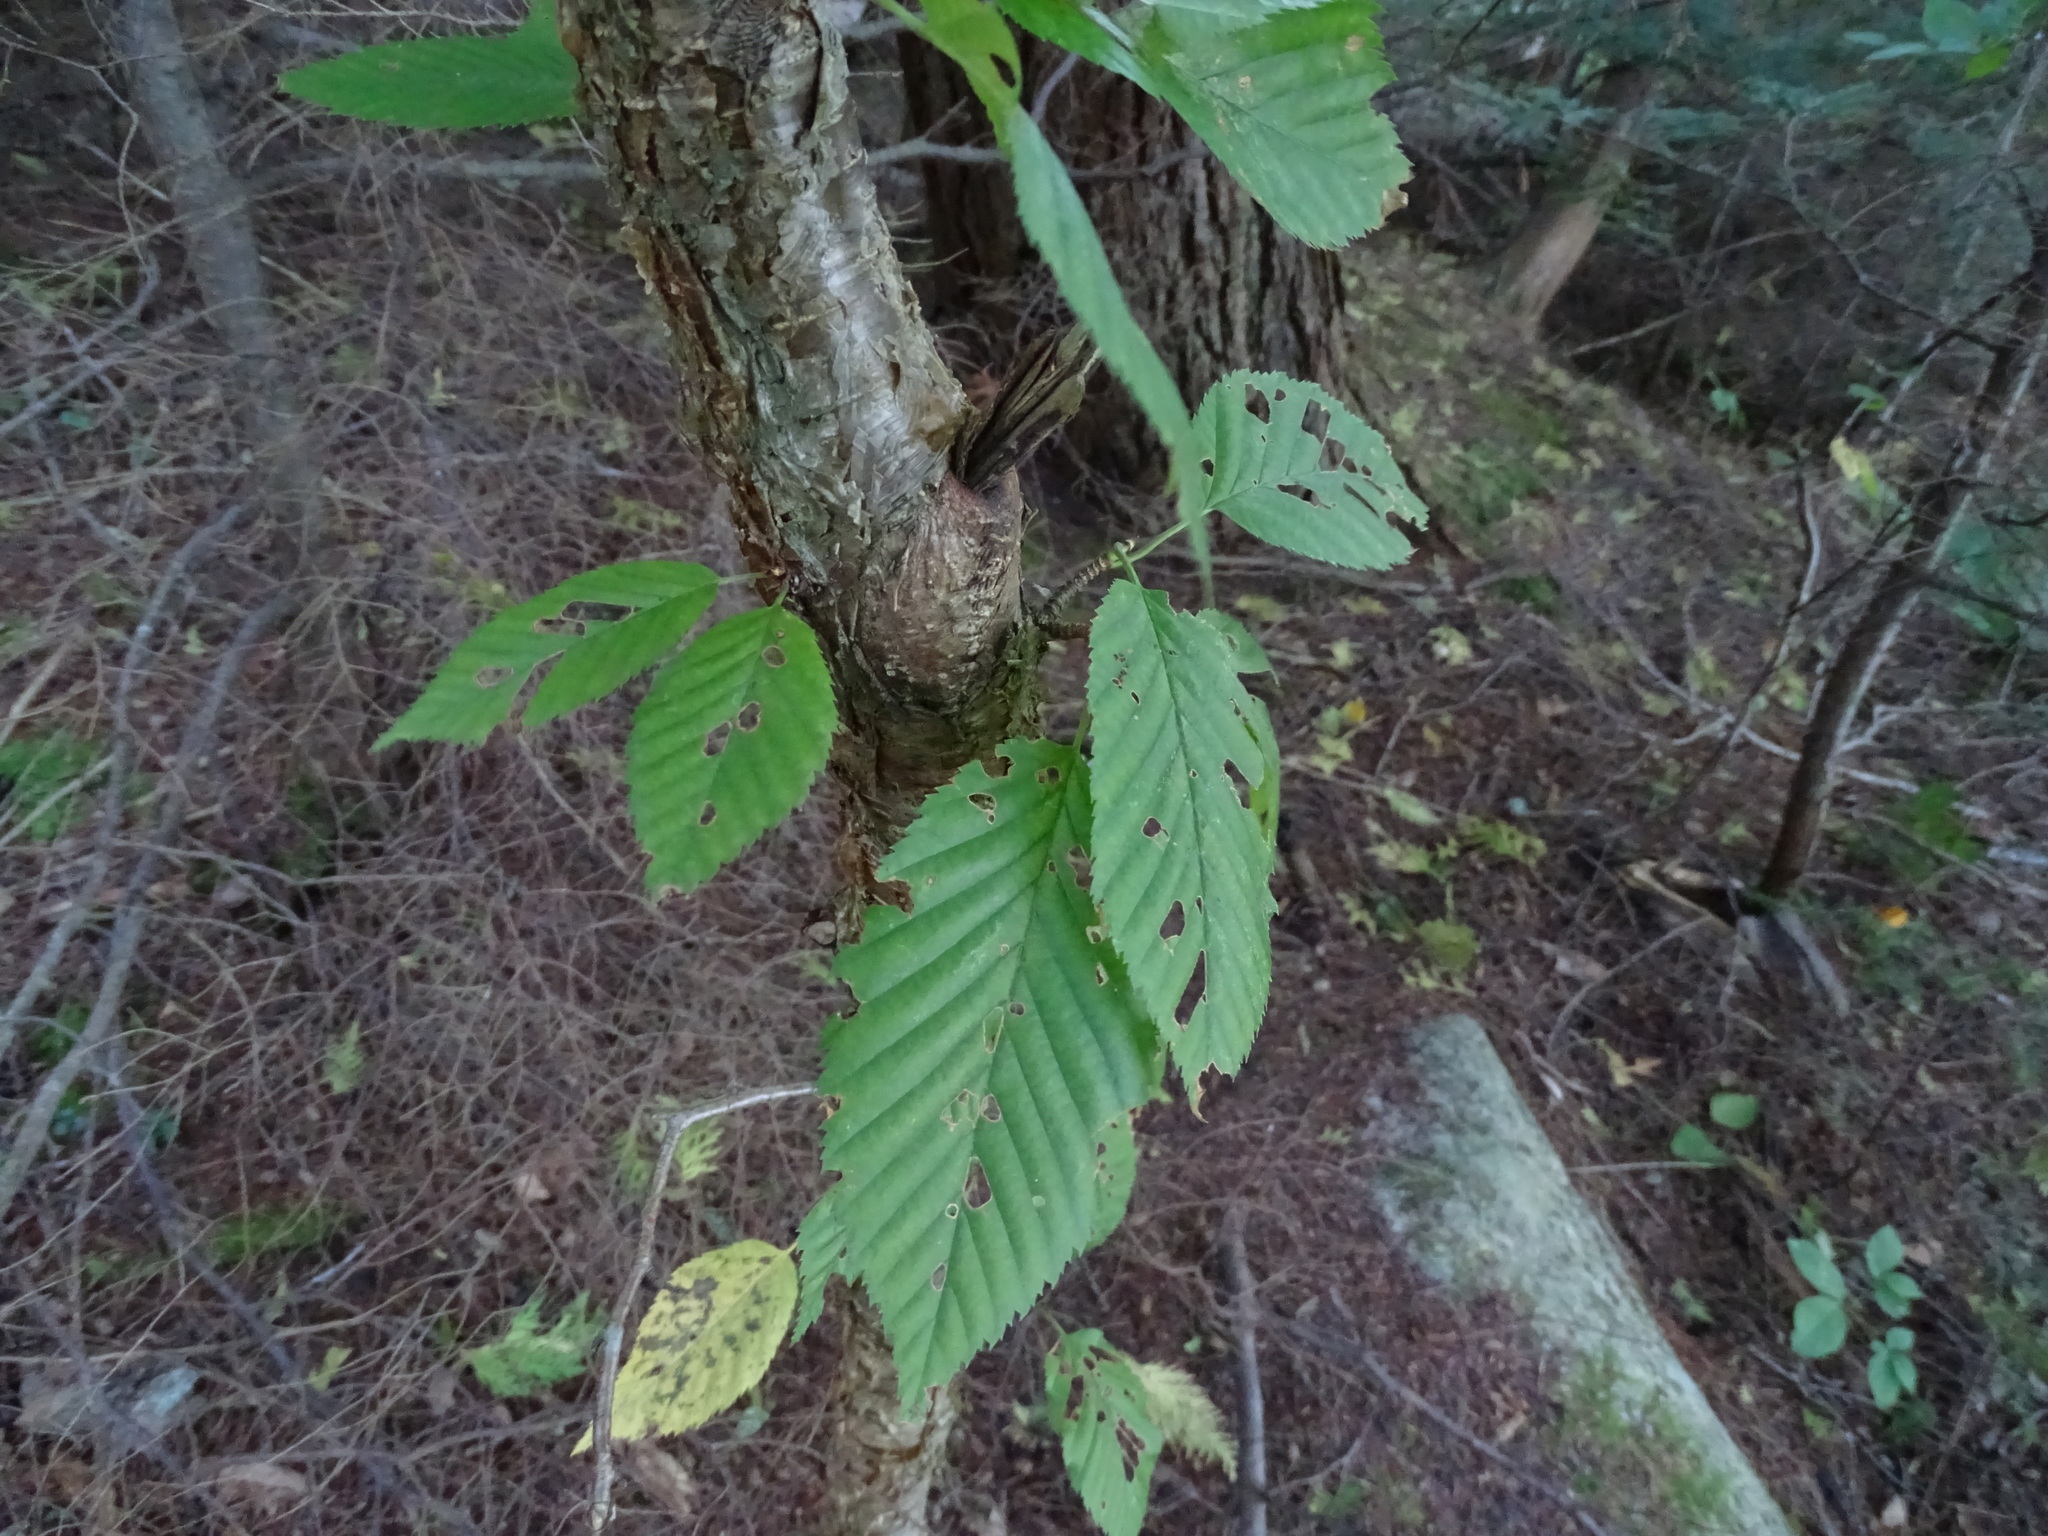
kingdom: Plantae
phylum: Tracheophyta
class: Magnoliopsida
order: Fagales
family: Betulaceae
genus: Betula
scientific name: Betula alleghaniensis
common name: Yellow birch
